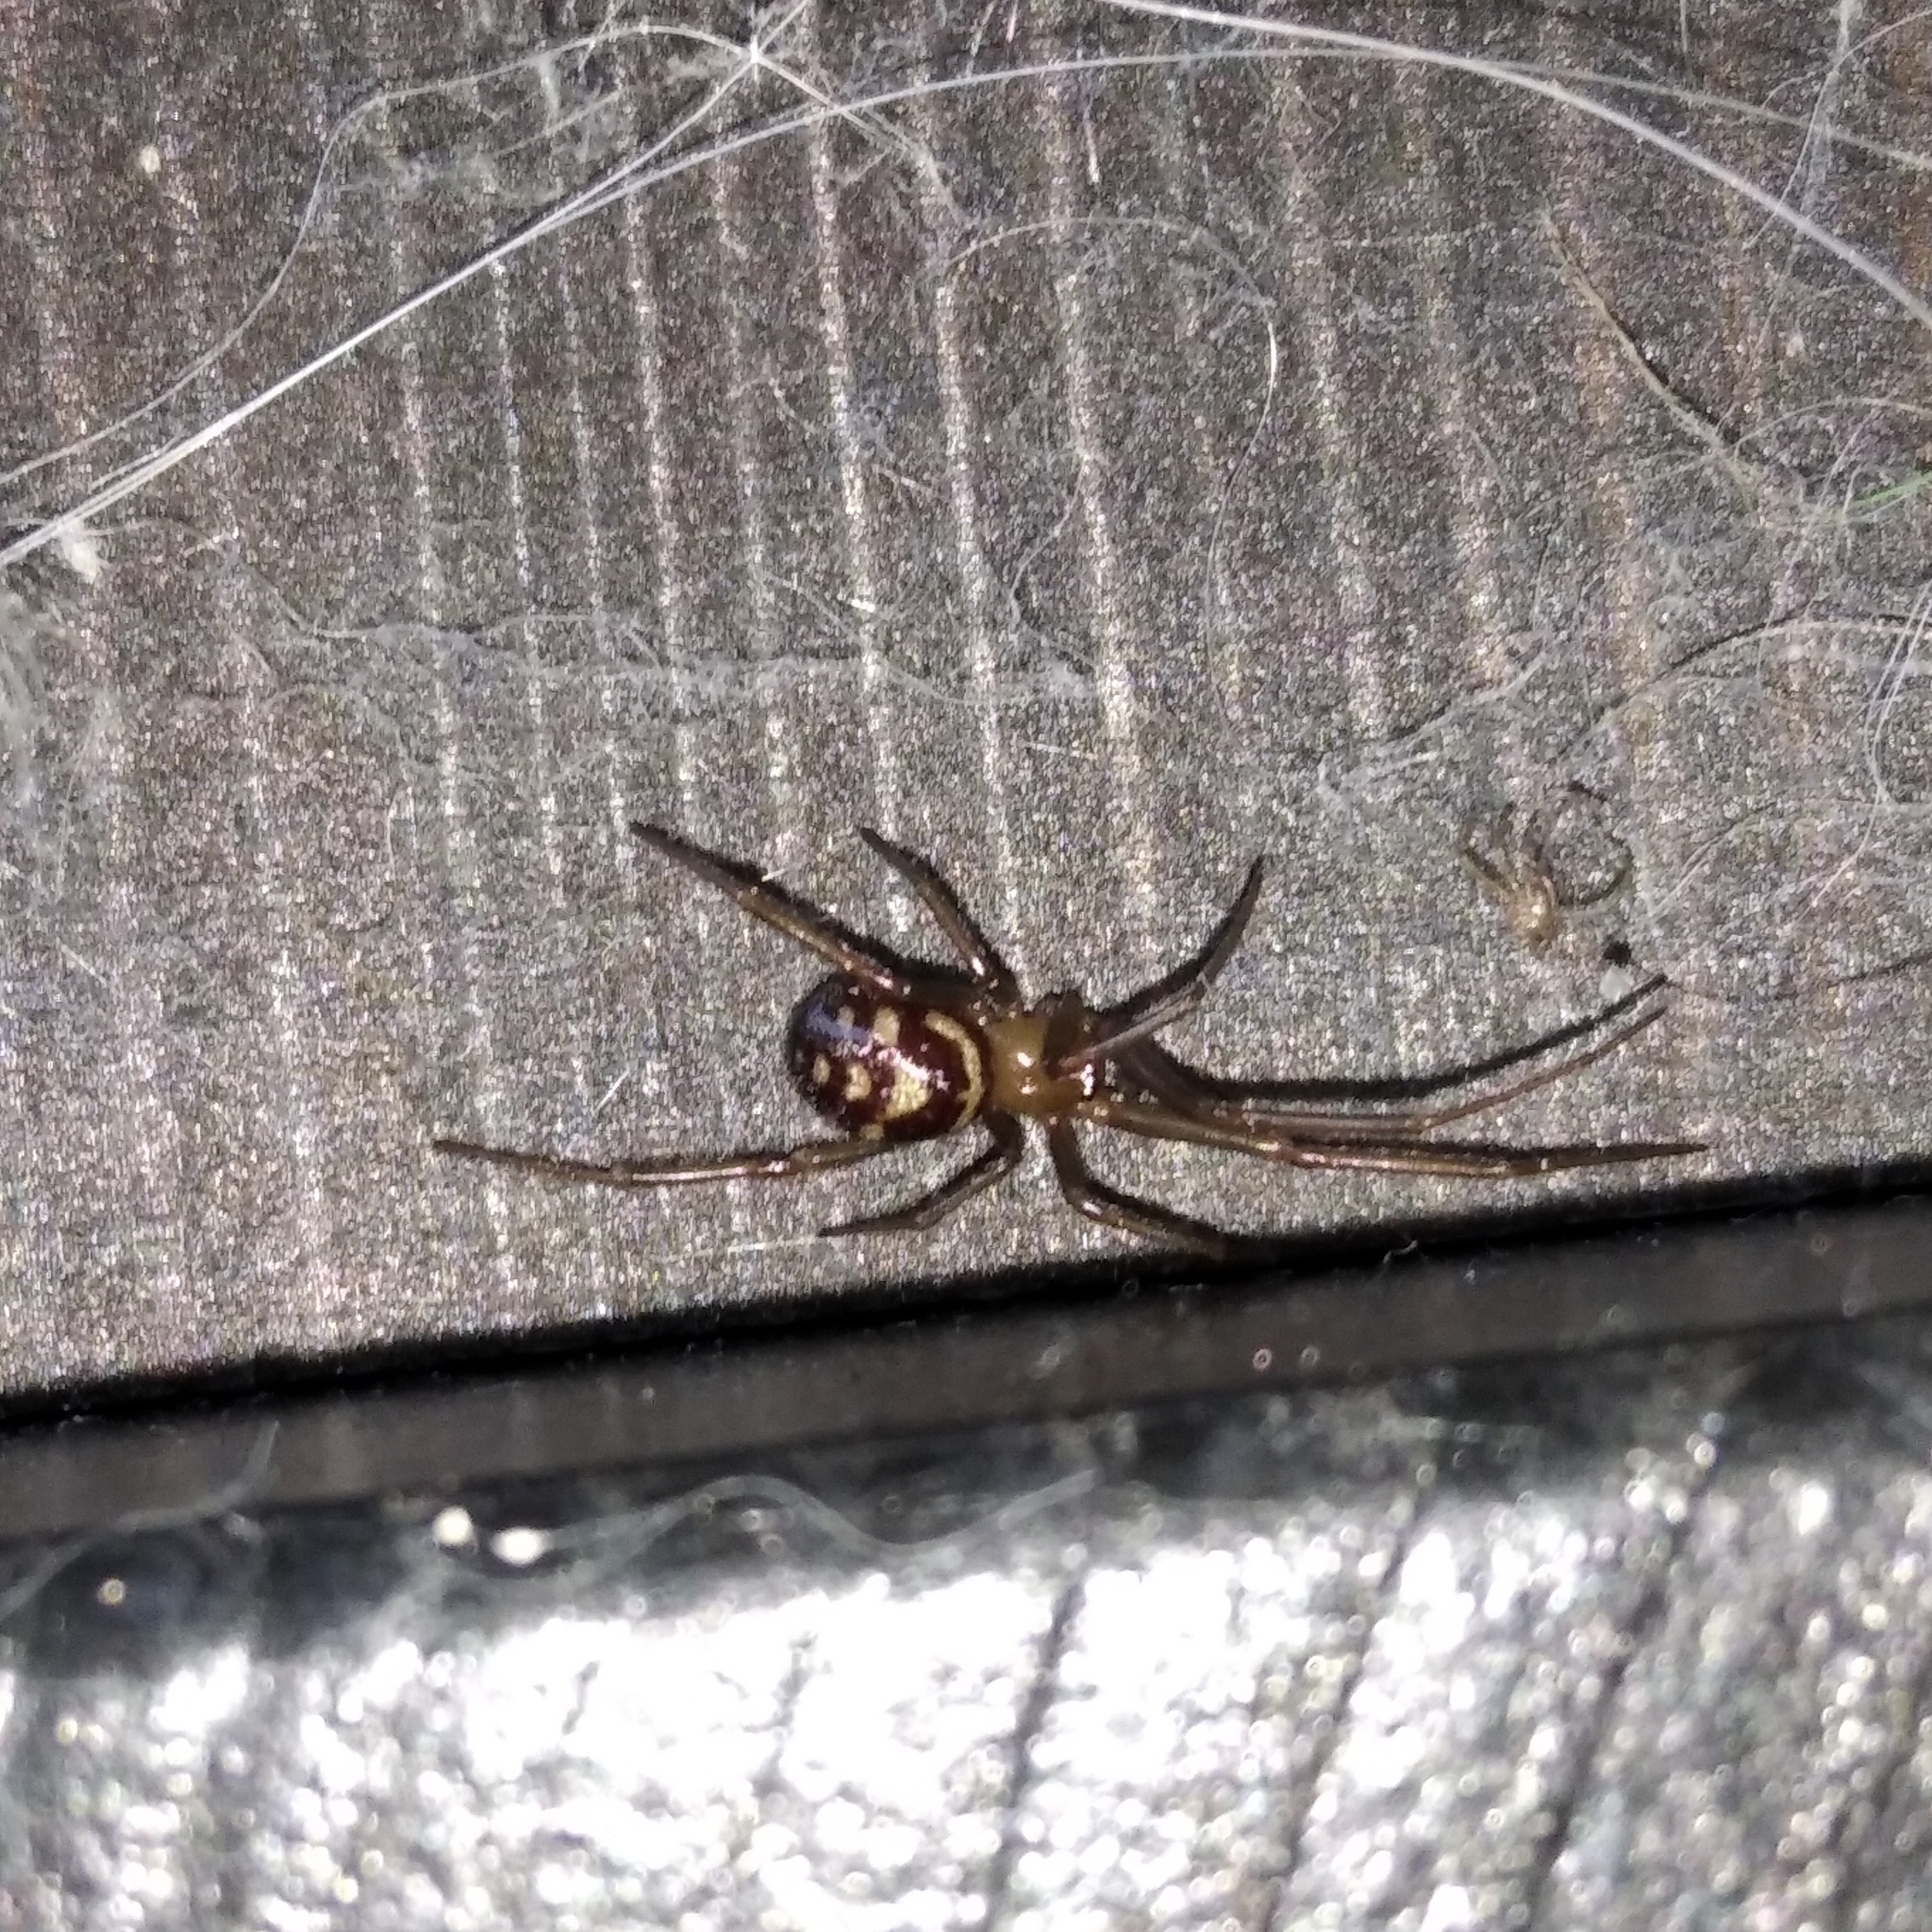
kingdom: Animalia
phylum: Arthropoda
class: Arachnida
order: Araneae
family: Theridiidae
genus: Steatoda
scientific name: Steatoda grossa
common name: False black widow
